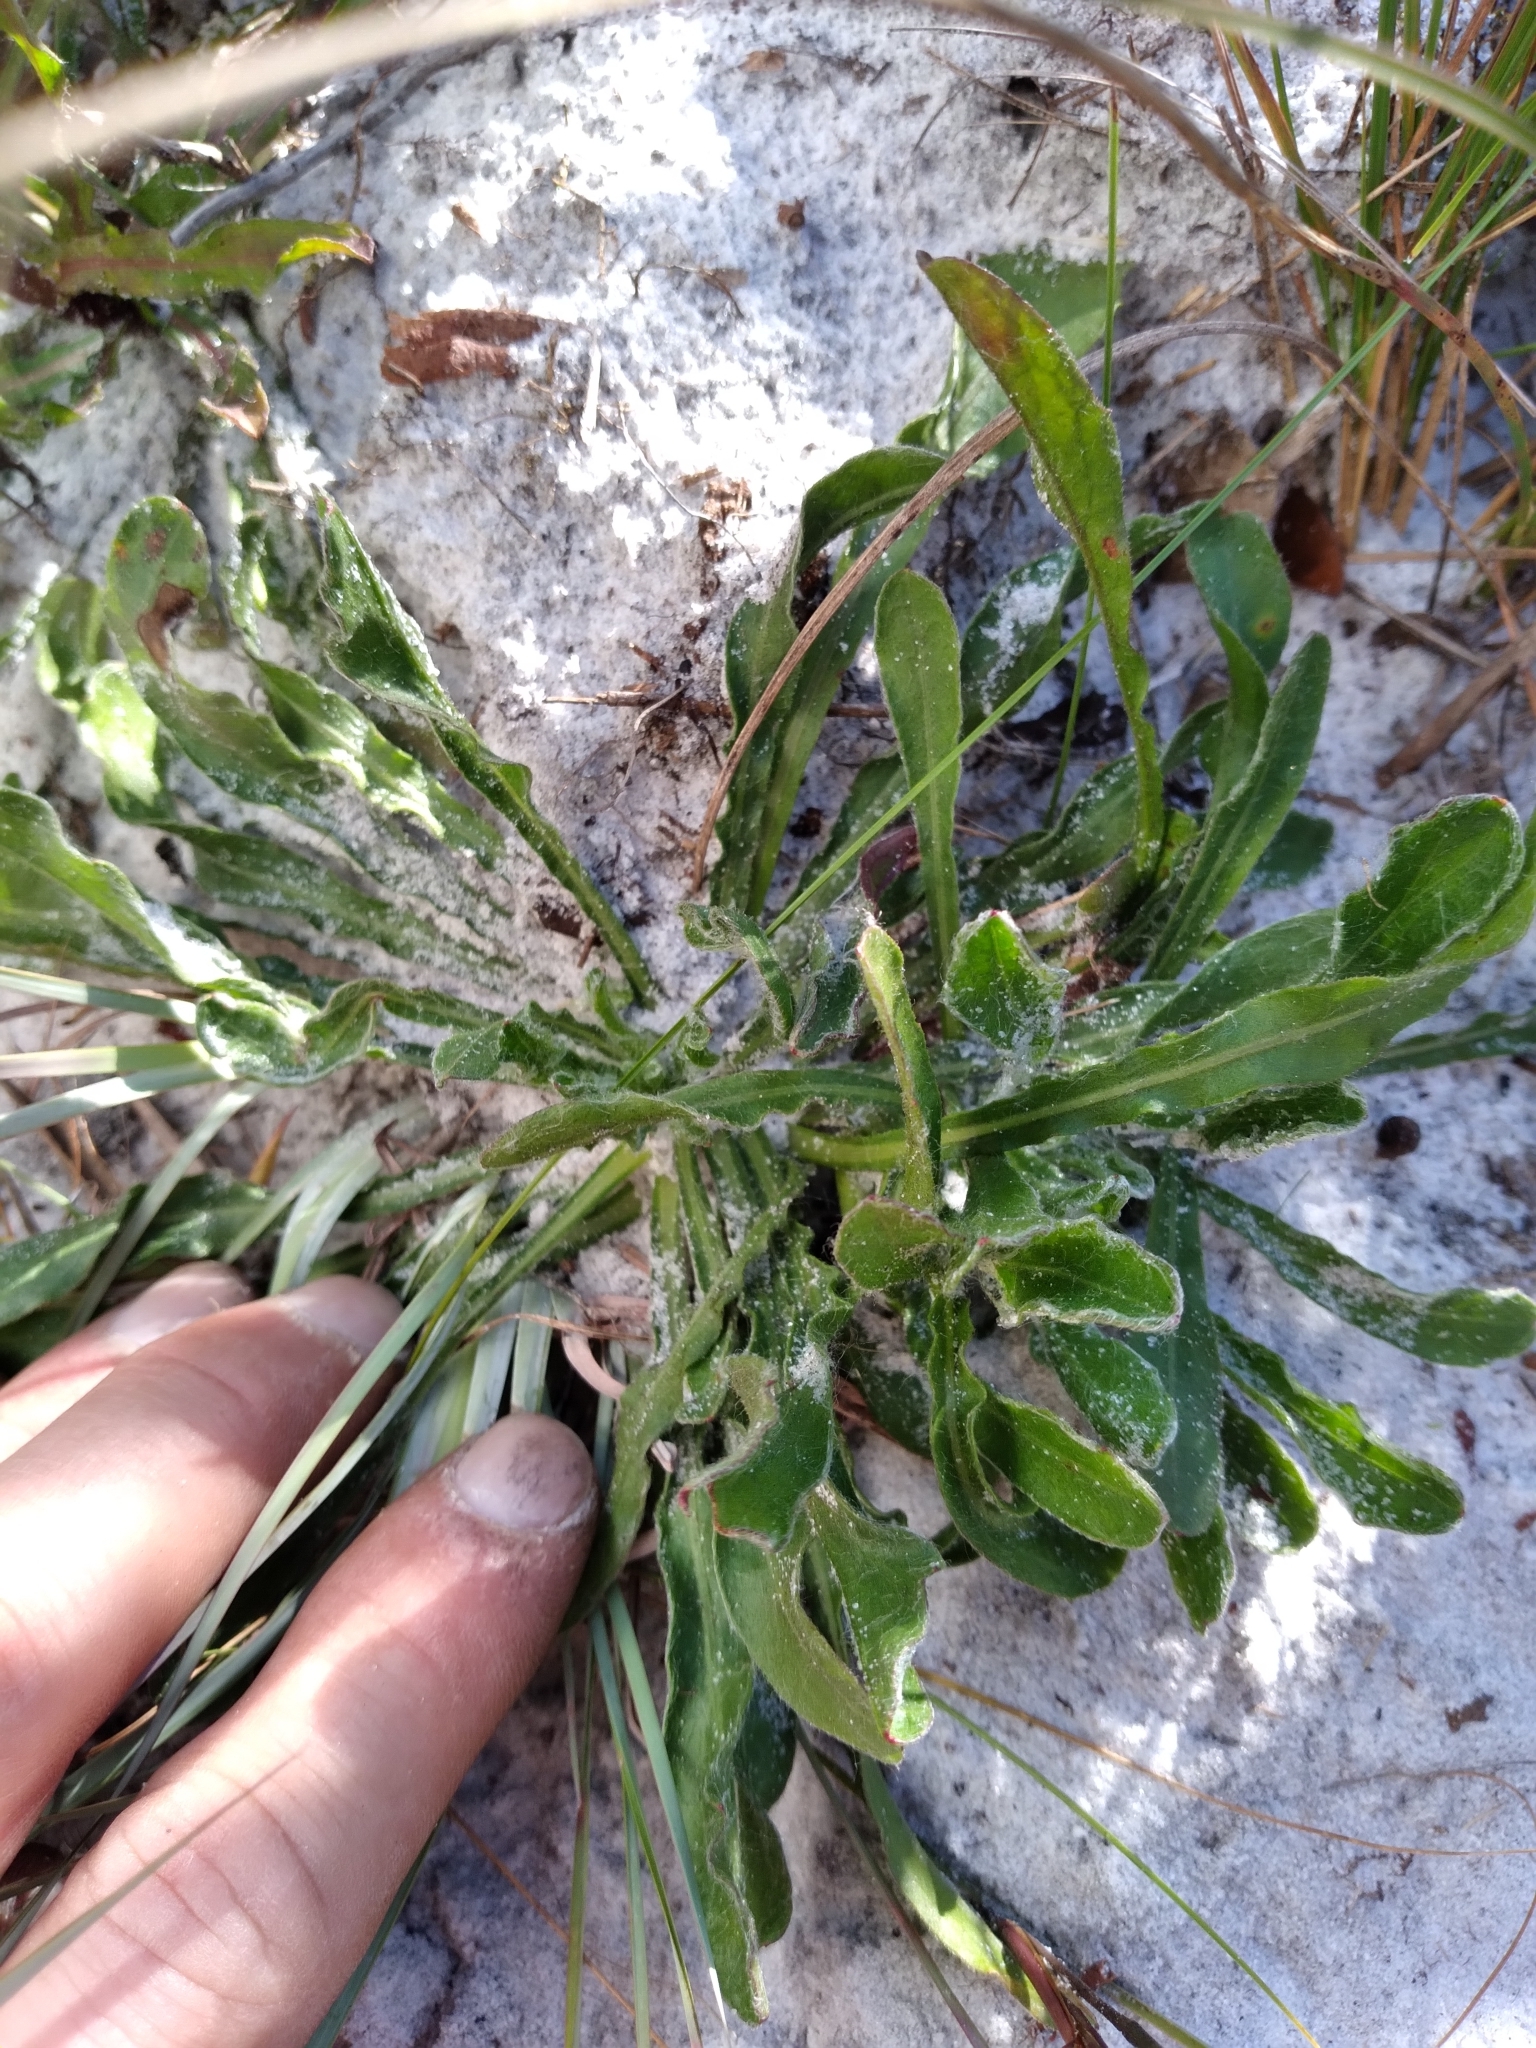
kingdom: Plantae
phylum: Tracheophyta
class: Magnoliopsida
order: Asterales
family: Asteraceae
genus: Chrysopsis
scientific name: Chrysopsis subulata
